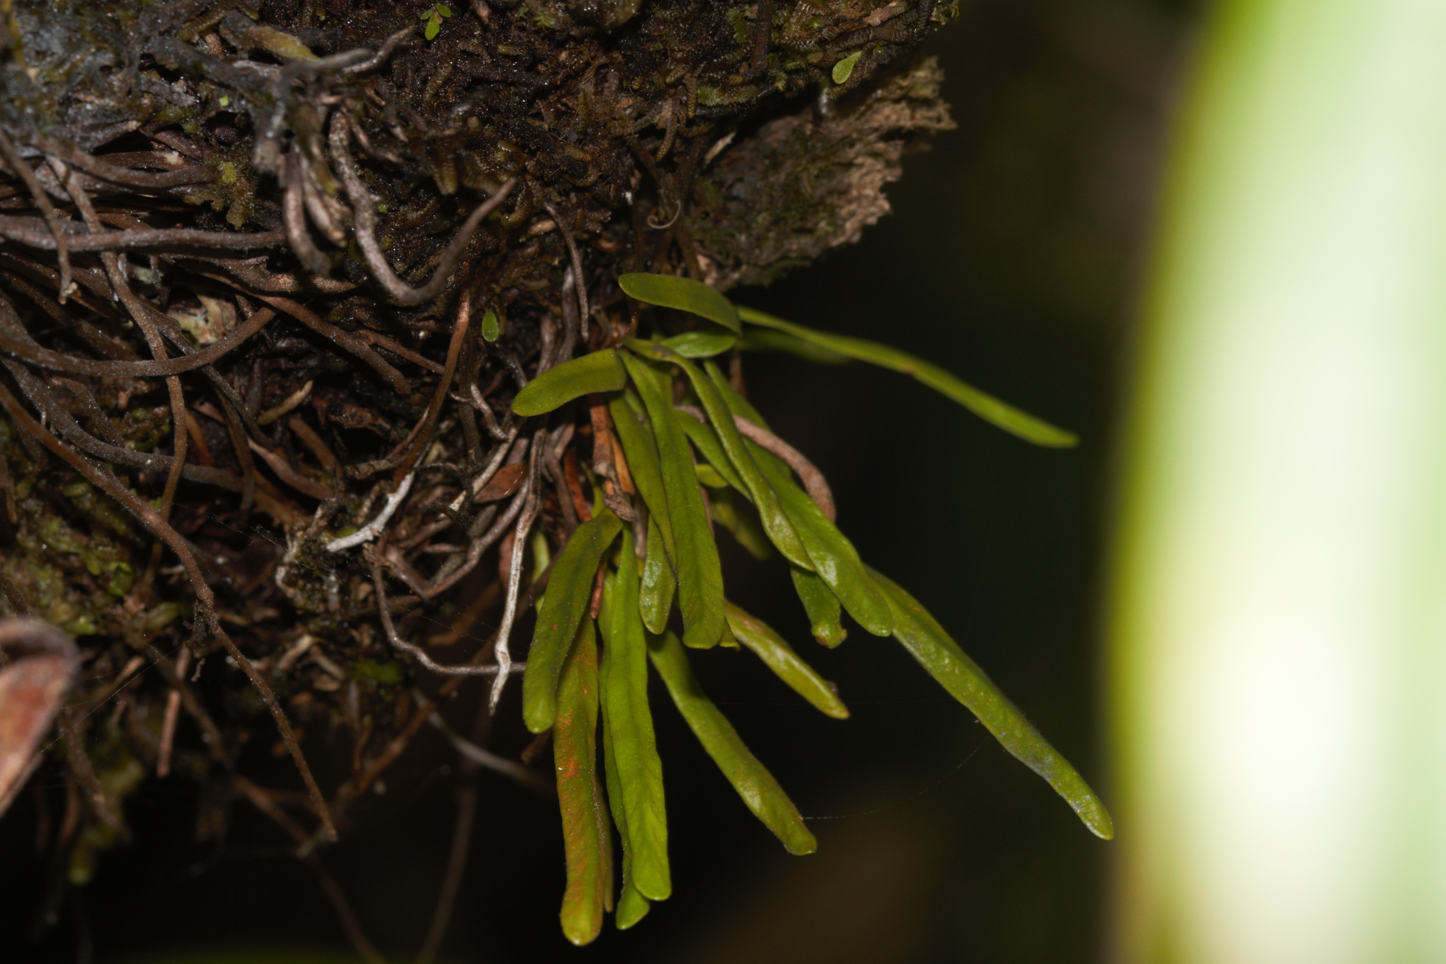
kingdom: Plantae
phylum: Tracheophyta
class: Polypodiopsida
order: Polypodiales
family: Polypodiaceae
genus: Cochlidium
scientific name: Cochlidium linearifolium
